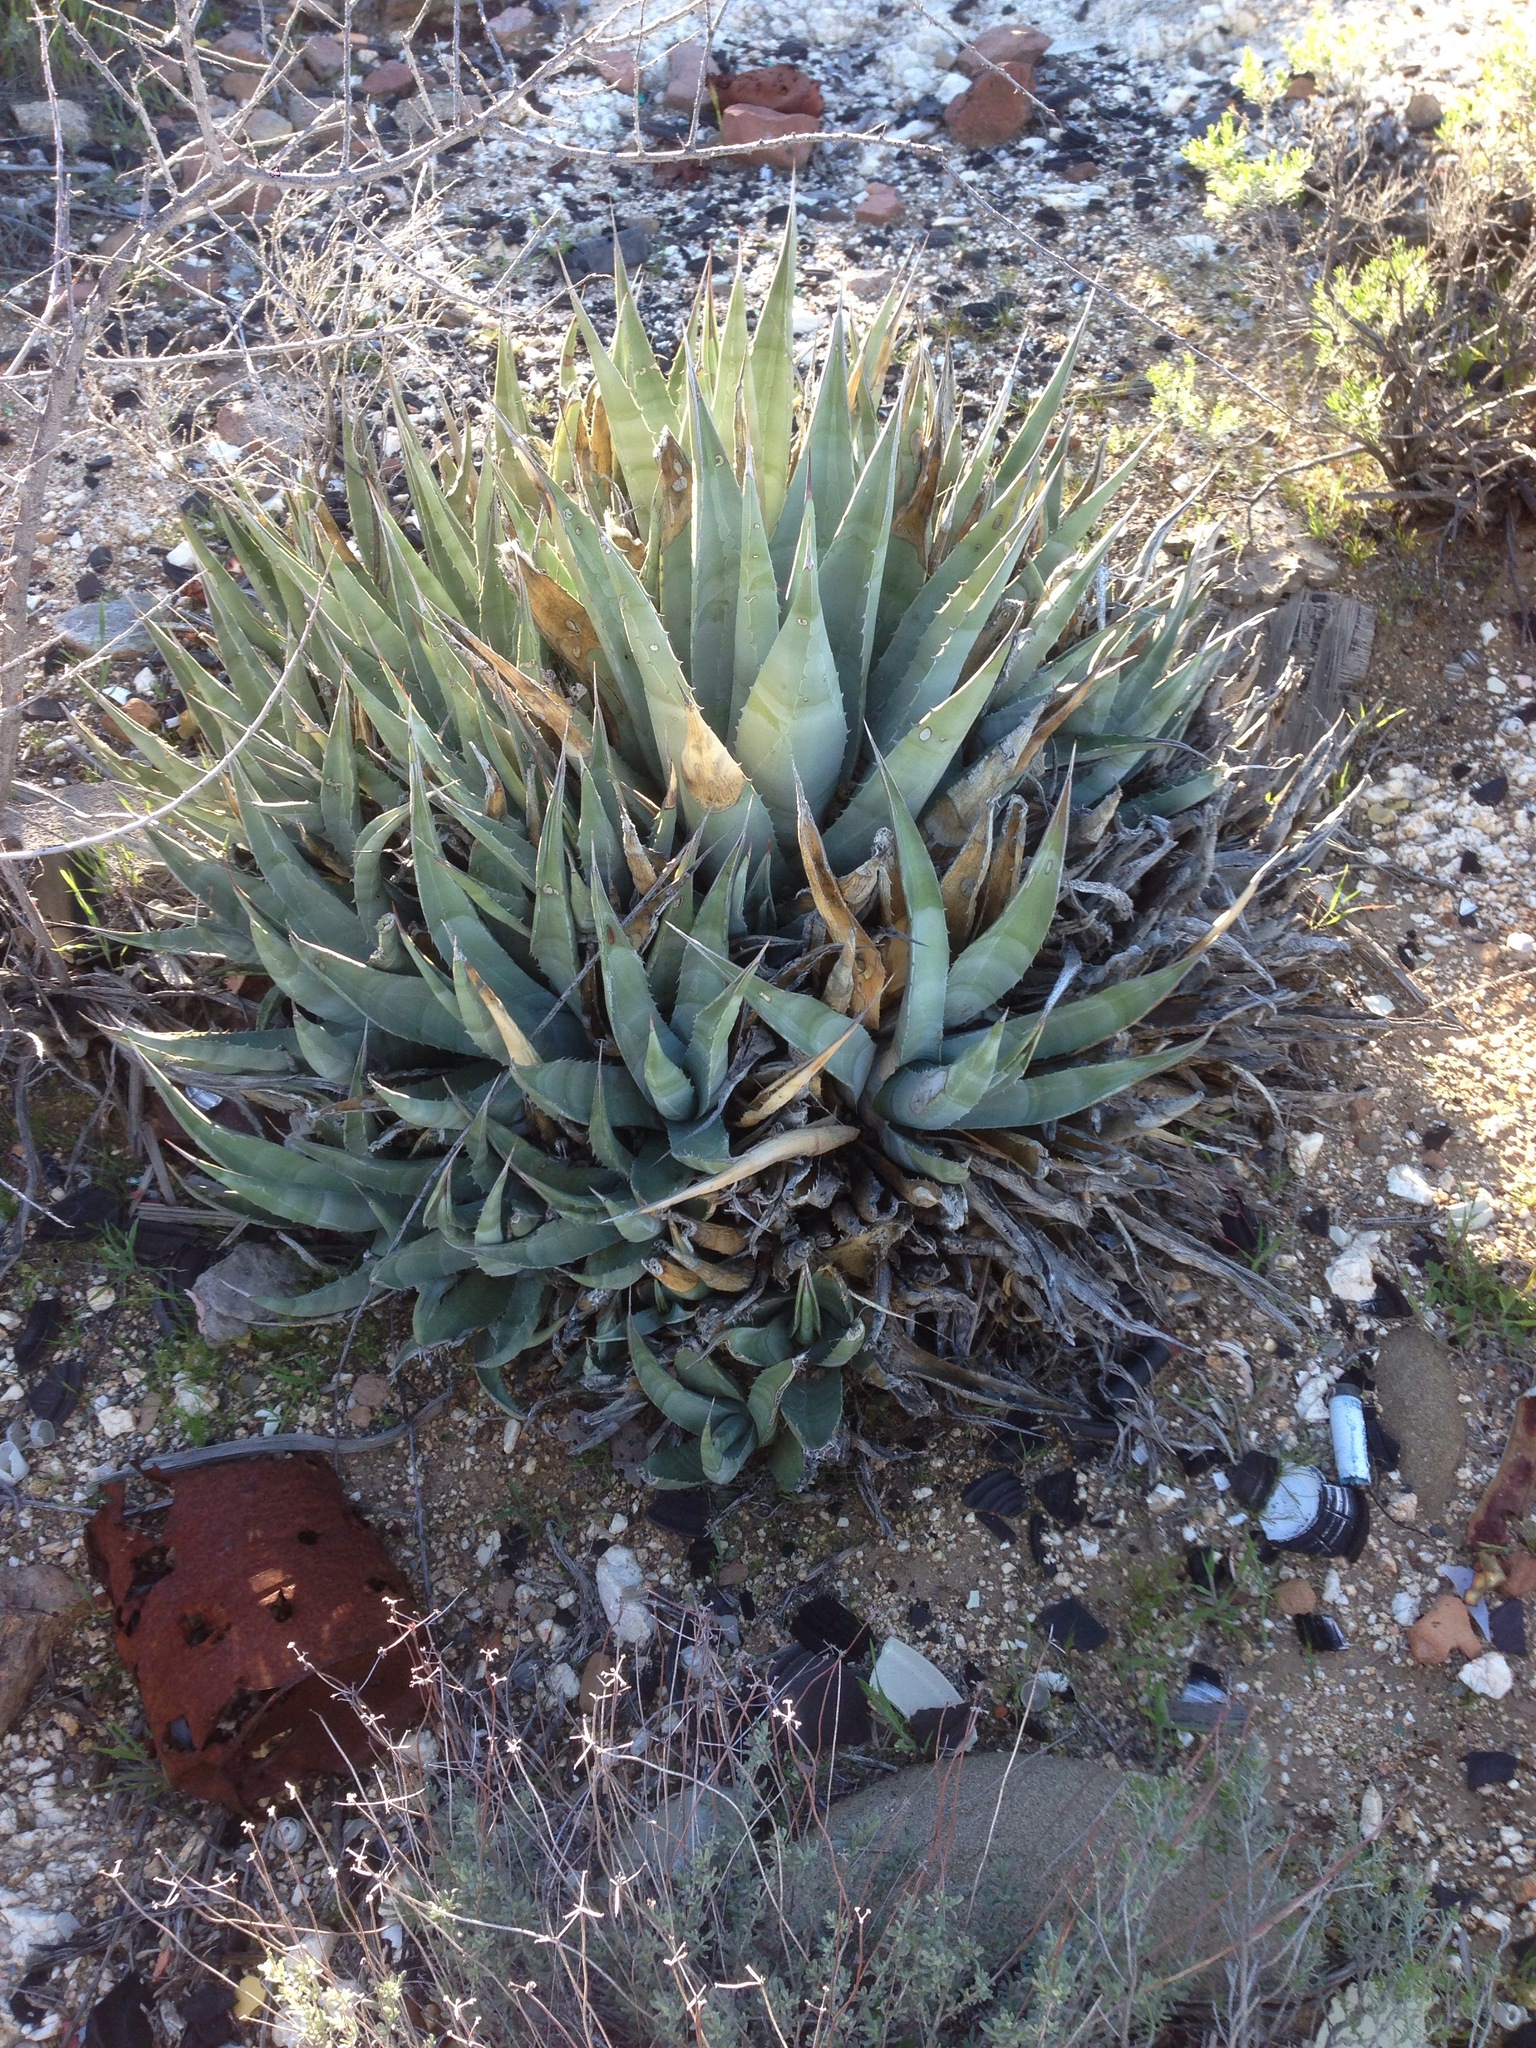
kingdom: Plantae
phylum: Tracheophyta
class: Liliopsida
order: Asparagales
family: Asparagaceae
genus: Agave
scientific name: Agave deserti
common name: Desert agave
